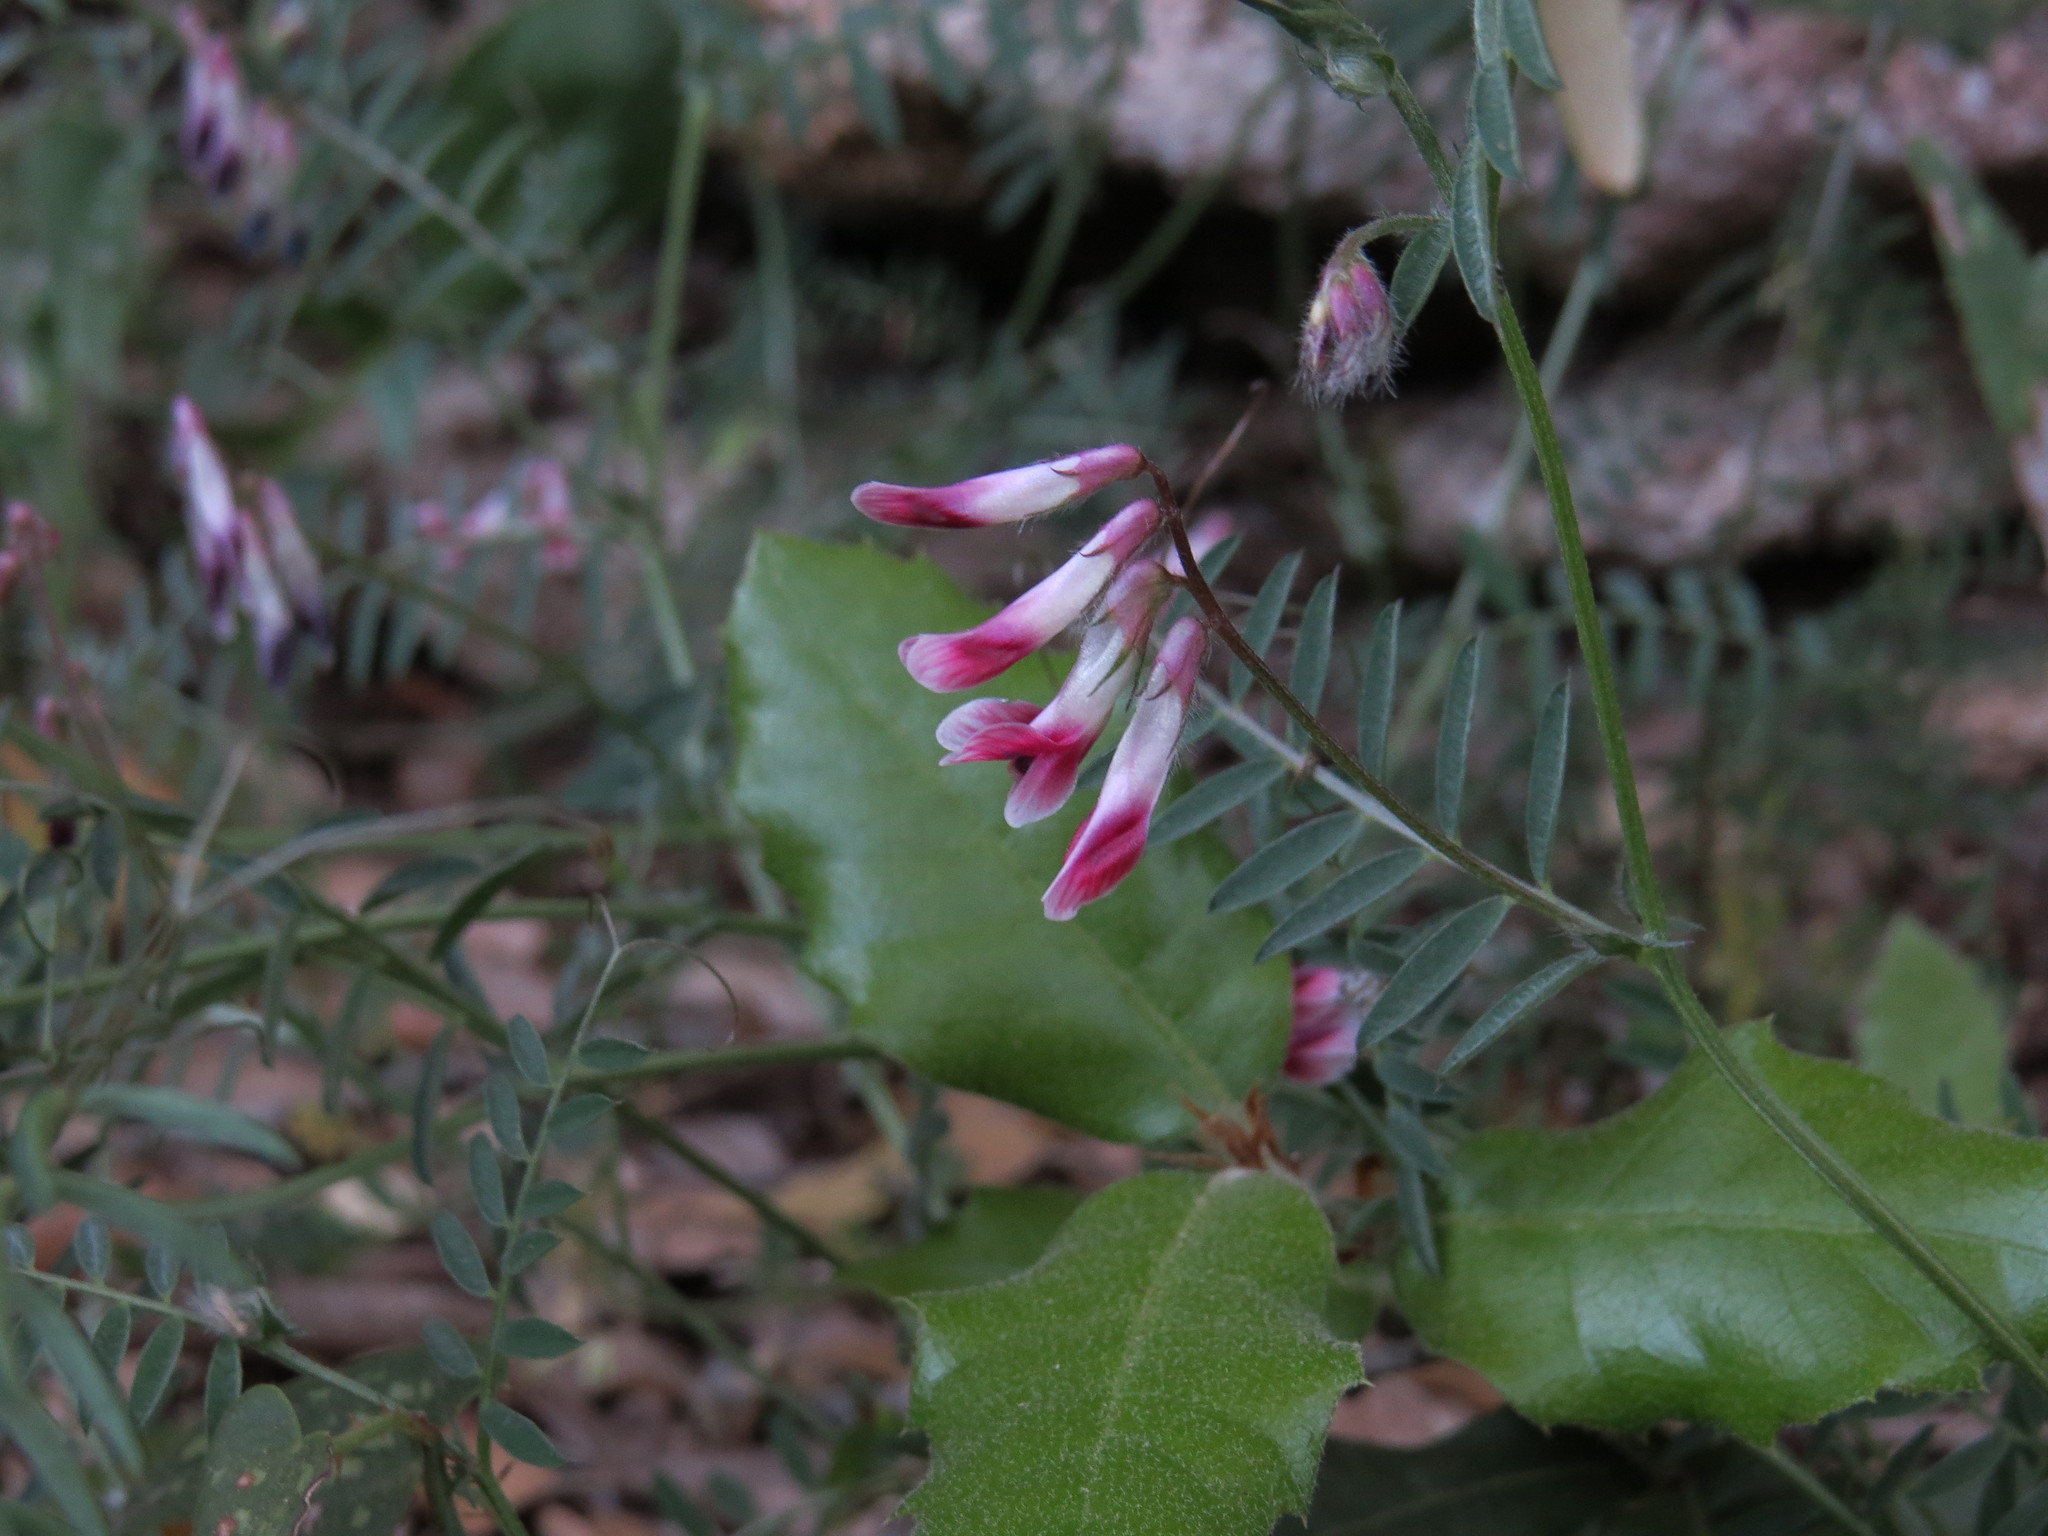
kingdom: Plantae
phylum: Tracheophyta
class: Magnoliopsida
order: Fabales
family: Fabaceae
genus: Vicia
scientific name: Vicia benghalensis
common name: Purple vetch
